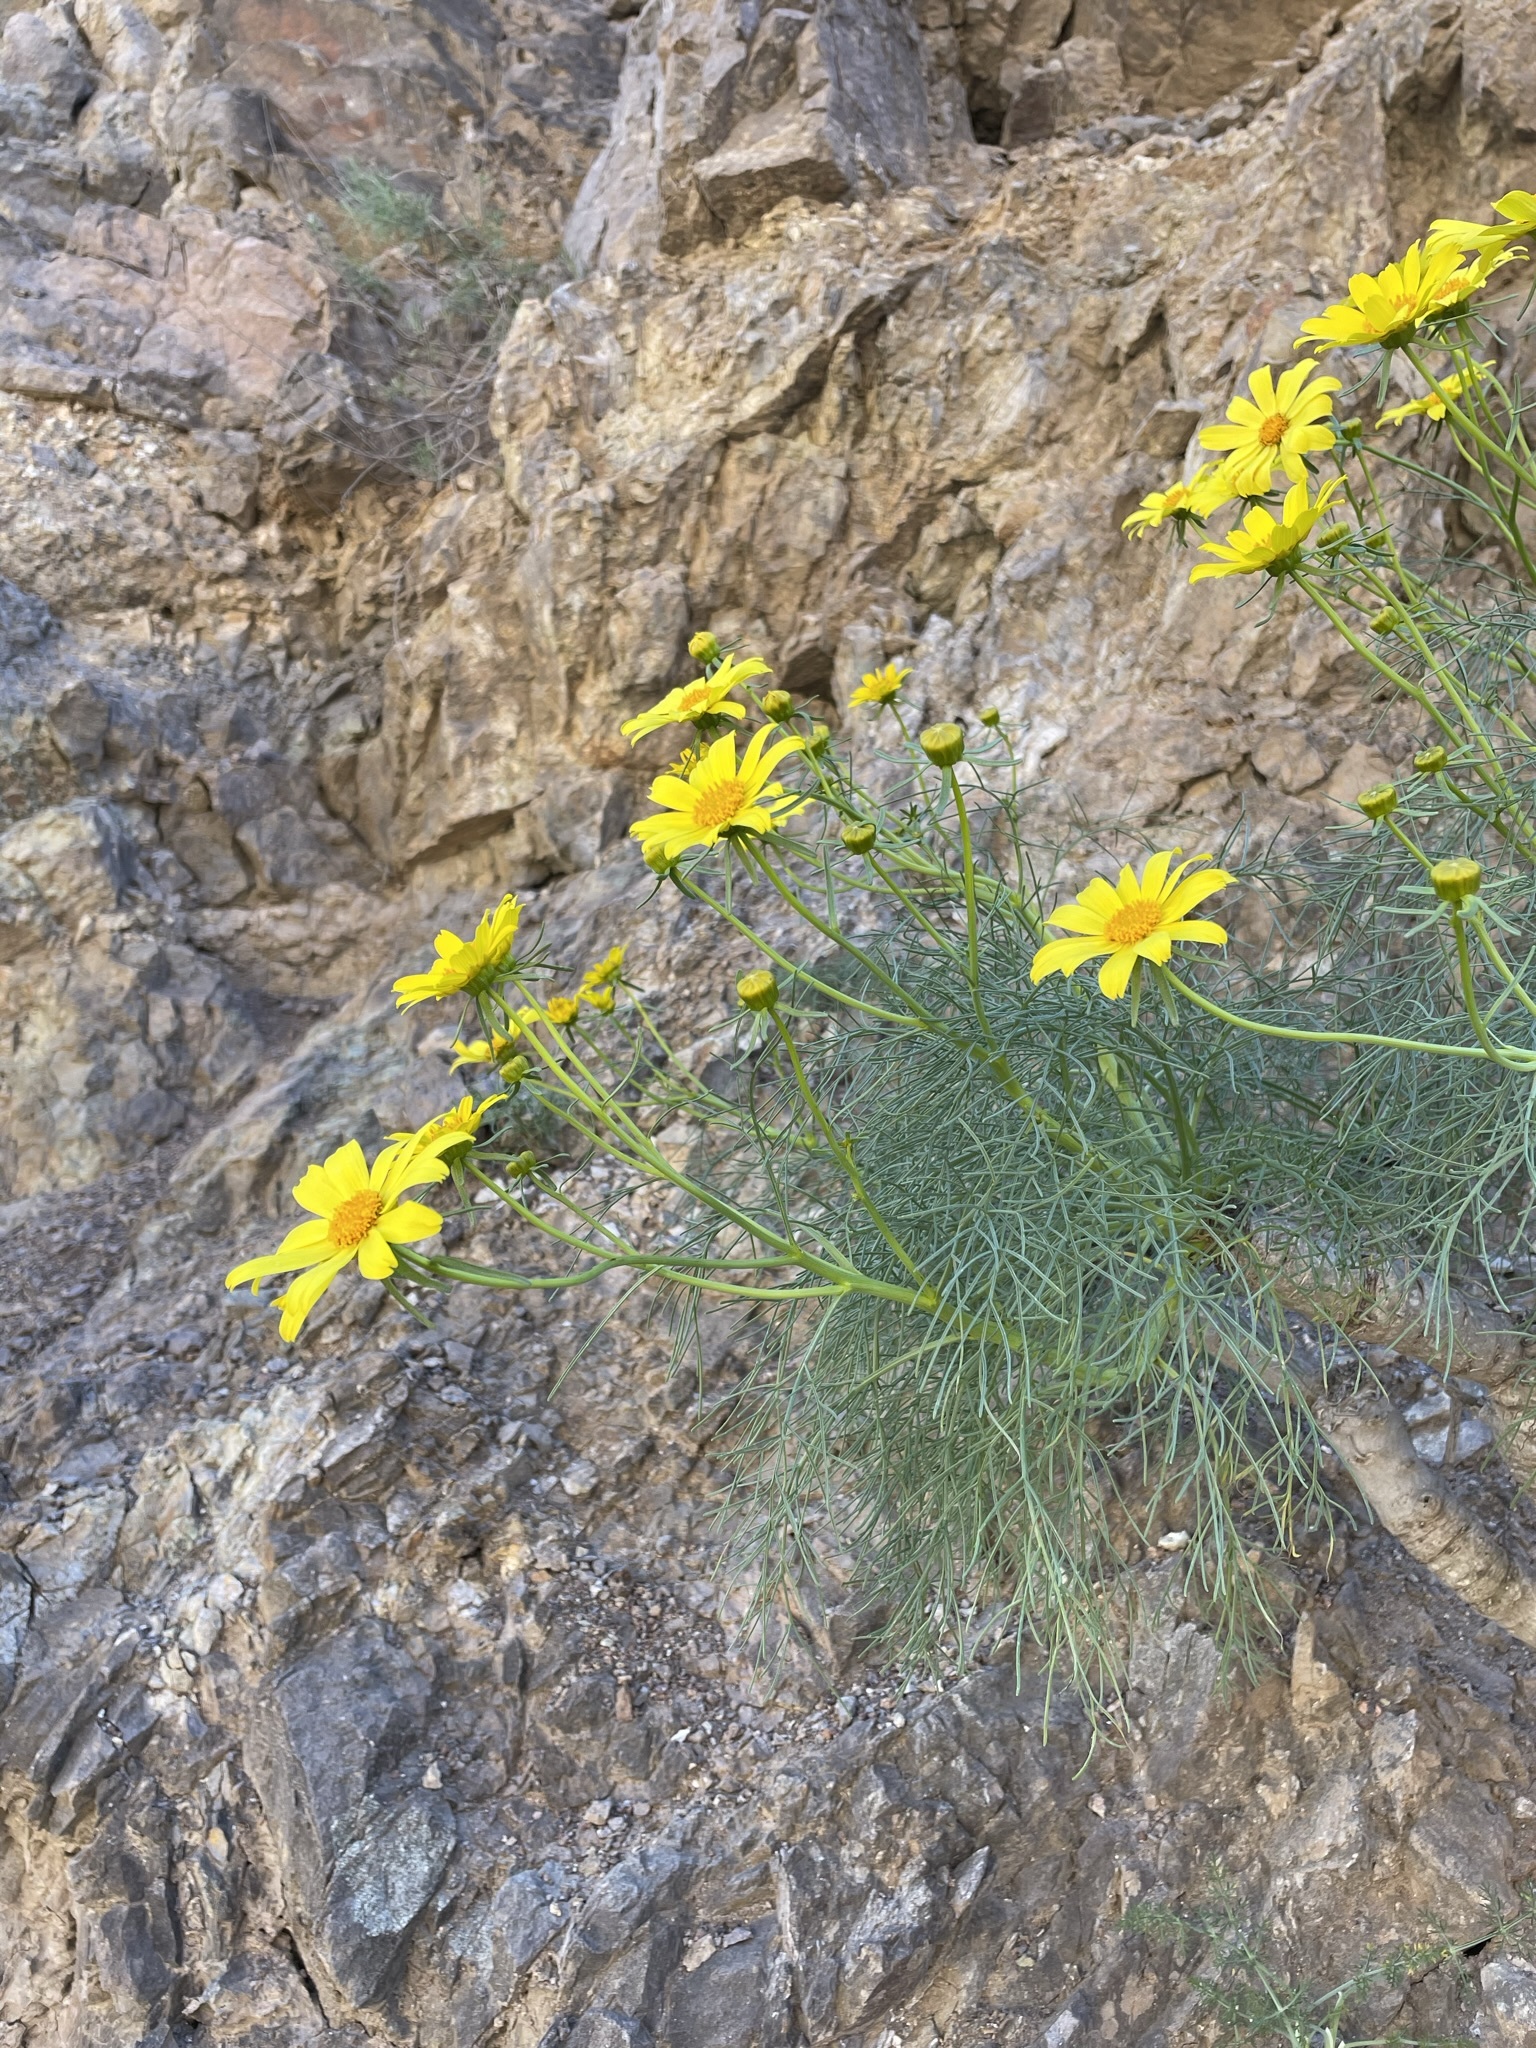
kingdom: Plantae
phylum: Tracheophyta
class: Magnoliopsida
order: Asterales
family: Asteraceae
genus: Coreopsis
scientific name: Coreopsis gigantea
